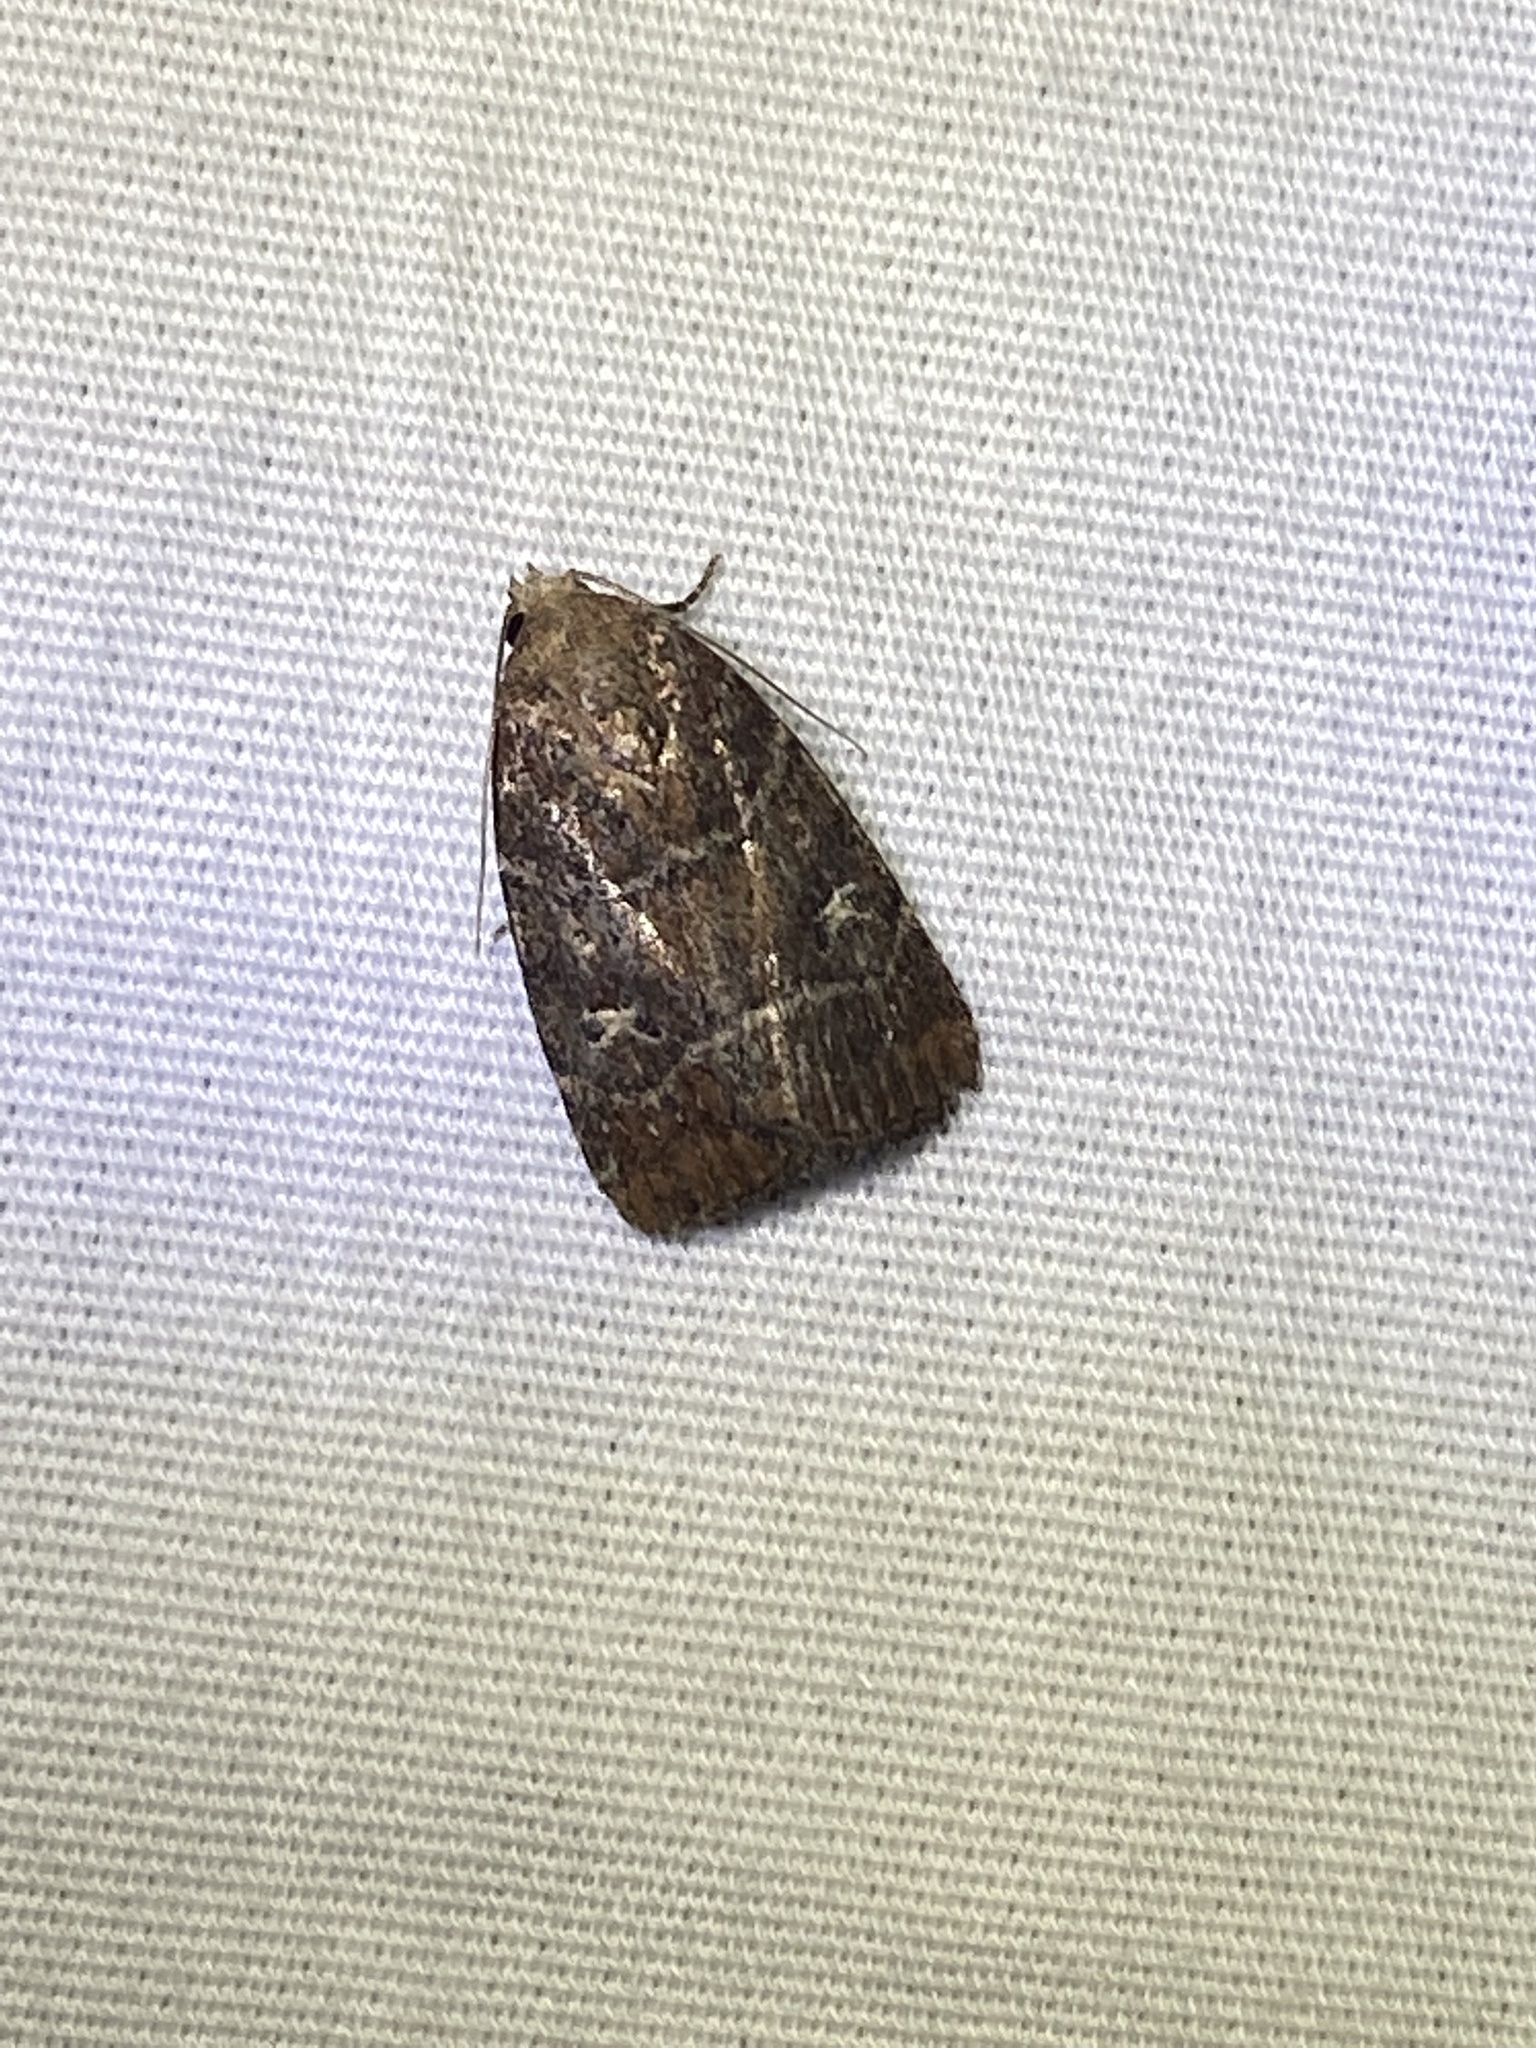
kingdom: Animalia
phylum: Arthropoda
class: Insecta
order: Lepidoptera
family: Noctuidae
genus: Elaphria
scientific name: Elaphria grata
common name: Grateful midget moth
